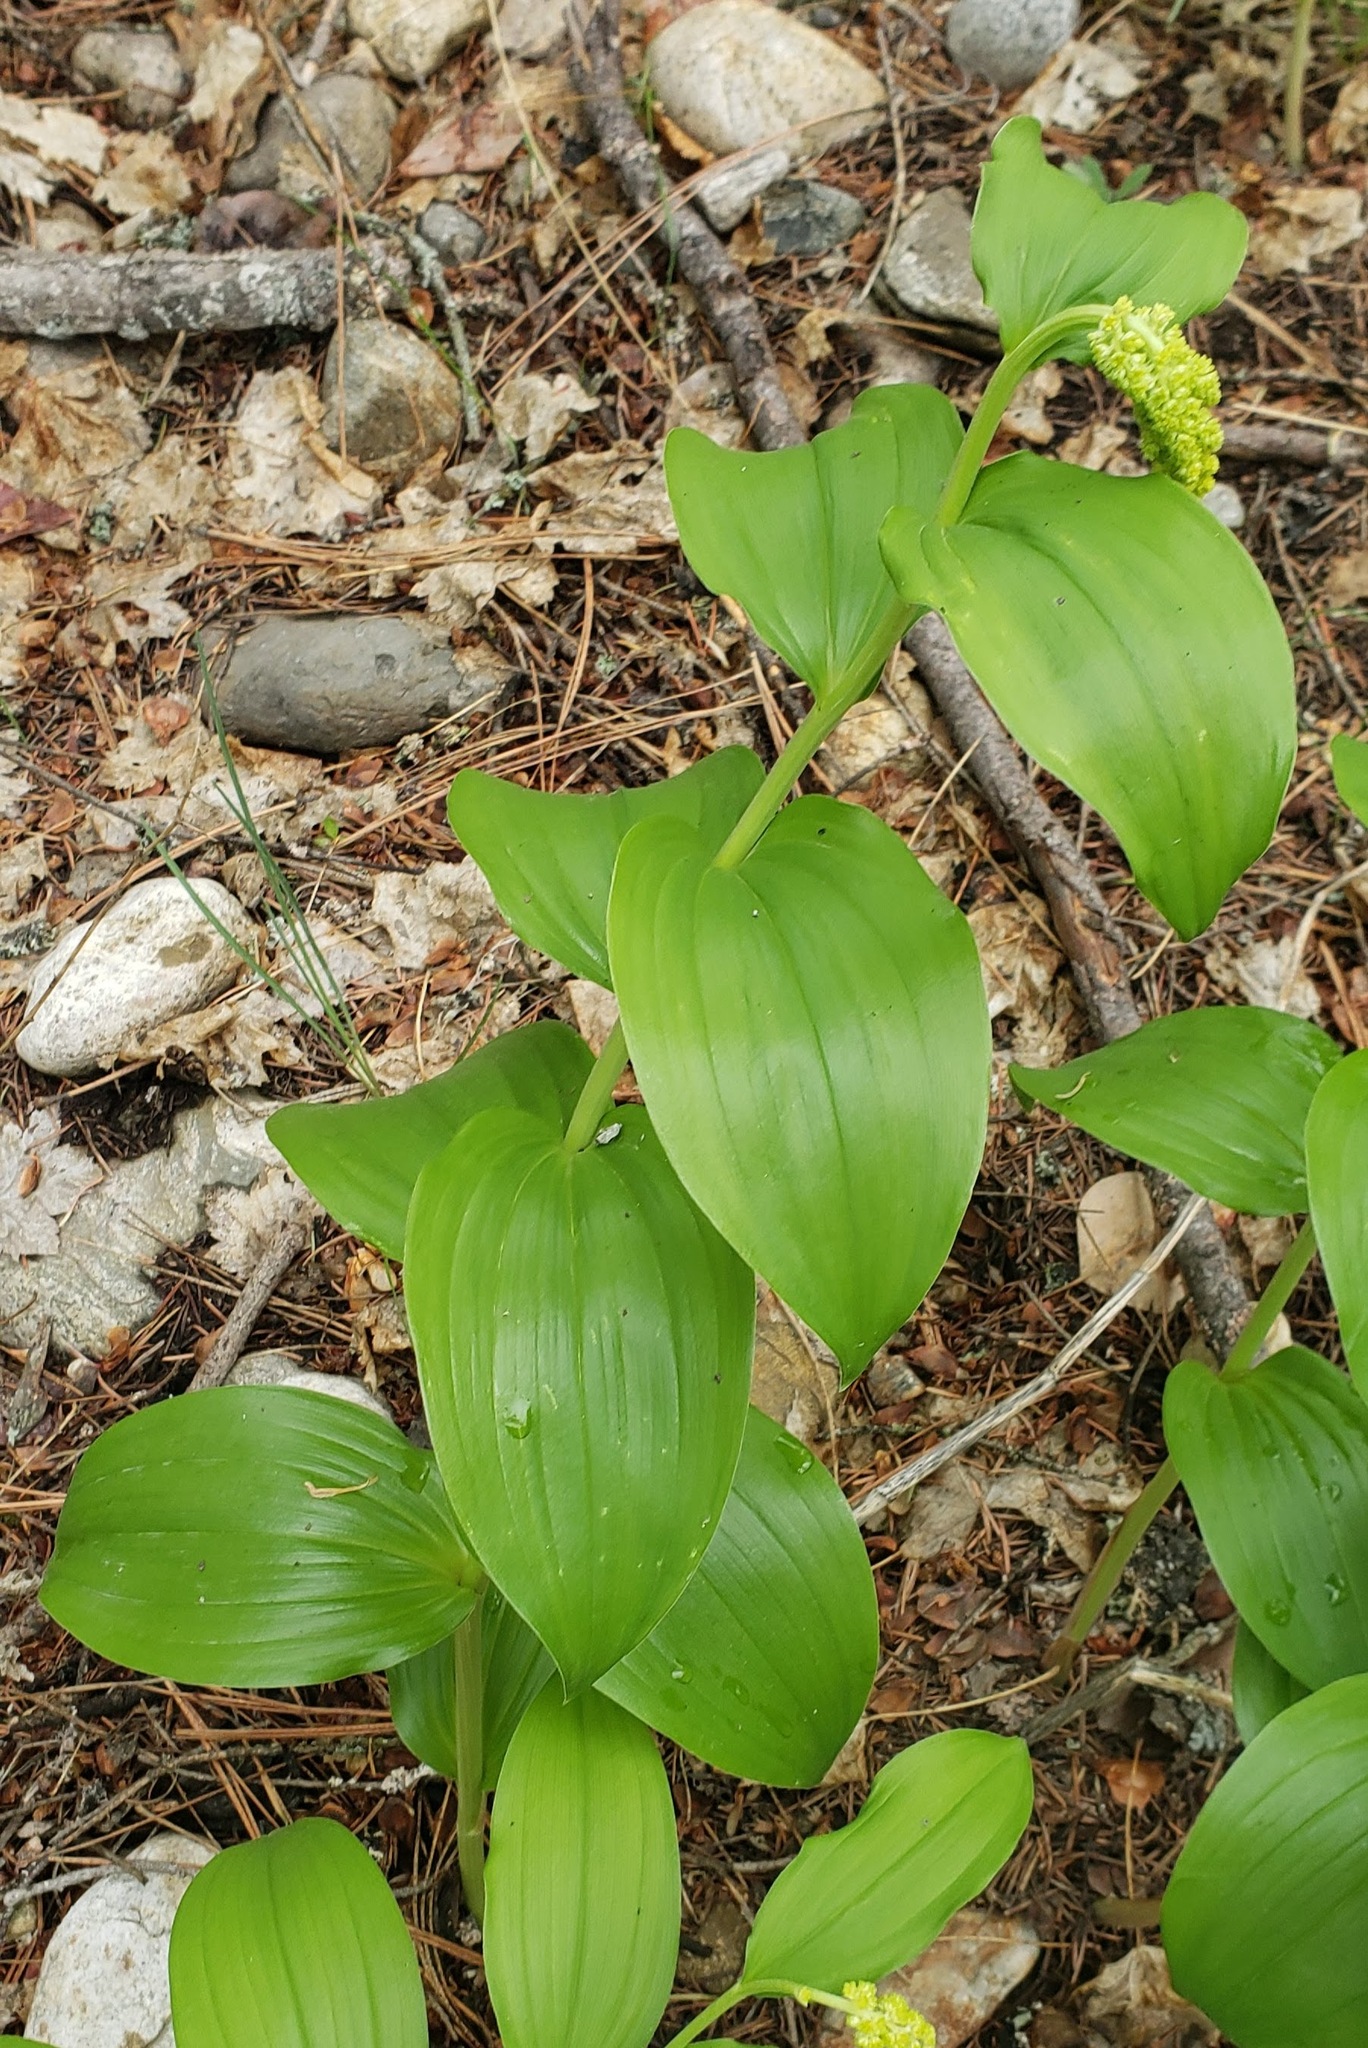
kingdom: Plantae
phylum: Tracheophyta
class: Liliopsida
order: Asparagales
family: Asparagaceae
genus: Maianthemum
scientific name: Maianthemum racemosum
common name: False spikenard
